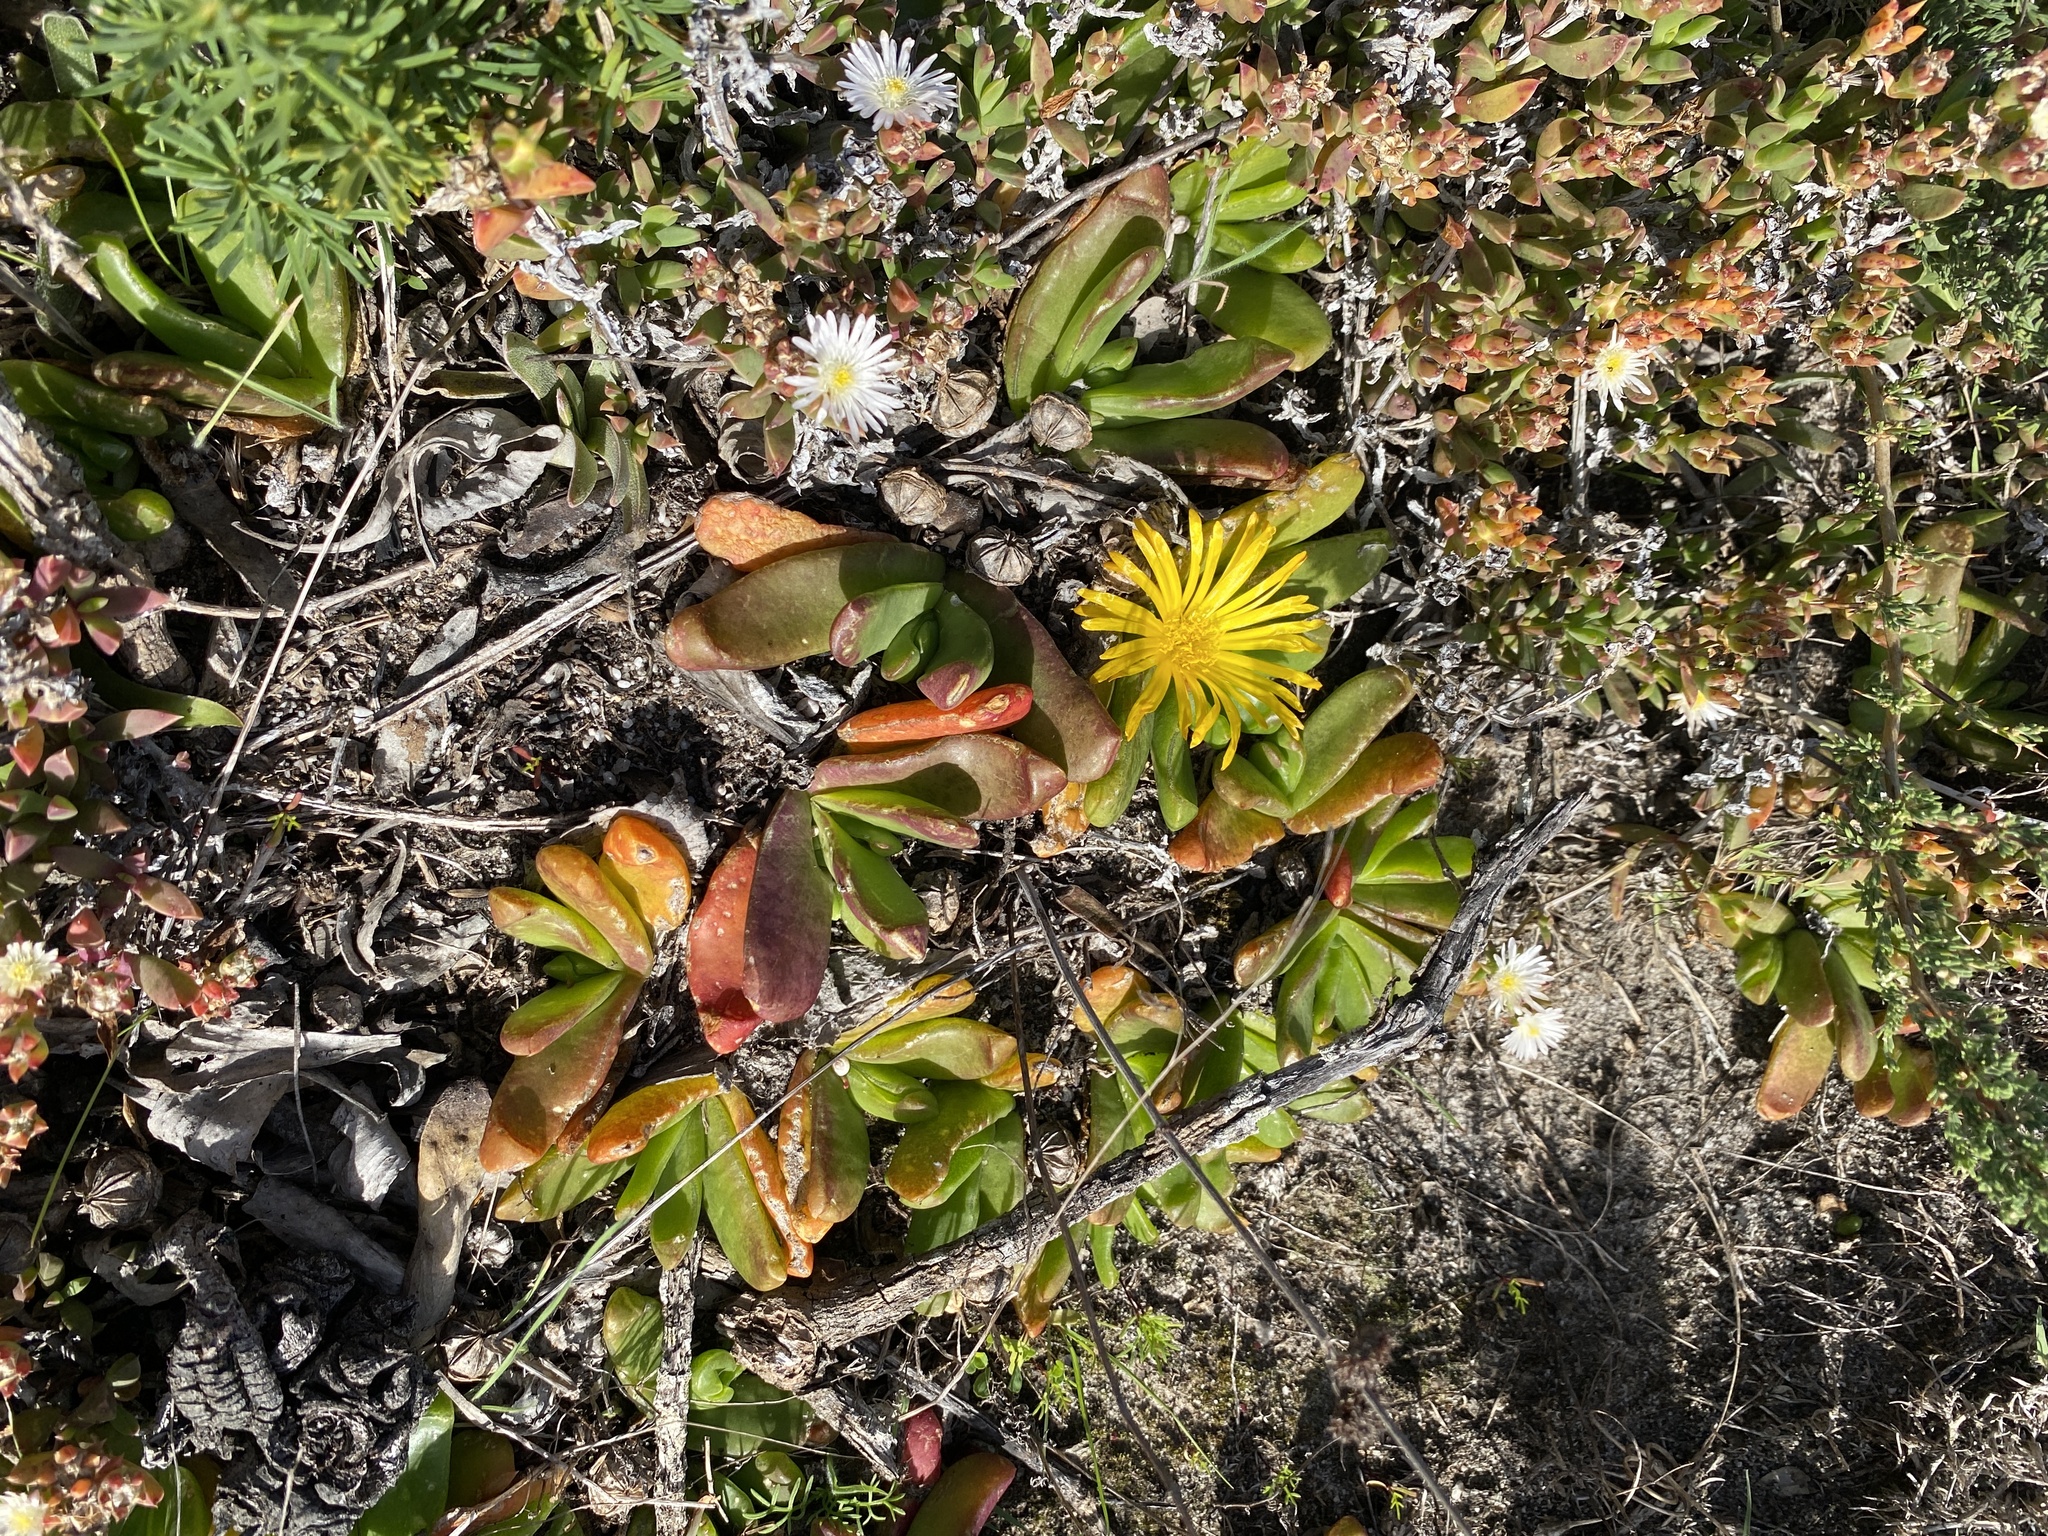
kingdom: Plantae
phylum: Tracheophyta
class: Magnoliopsida
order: Caryophyllales
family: Aizoaceae
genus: Glottiphyllum
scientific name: Glottiphyllum depressum
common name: Fig-marigold
